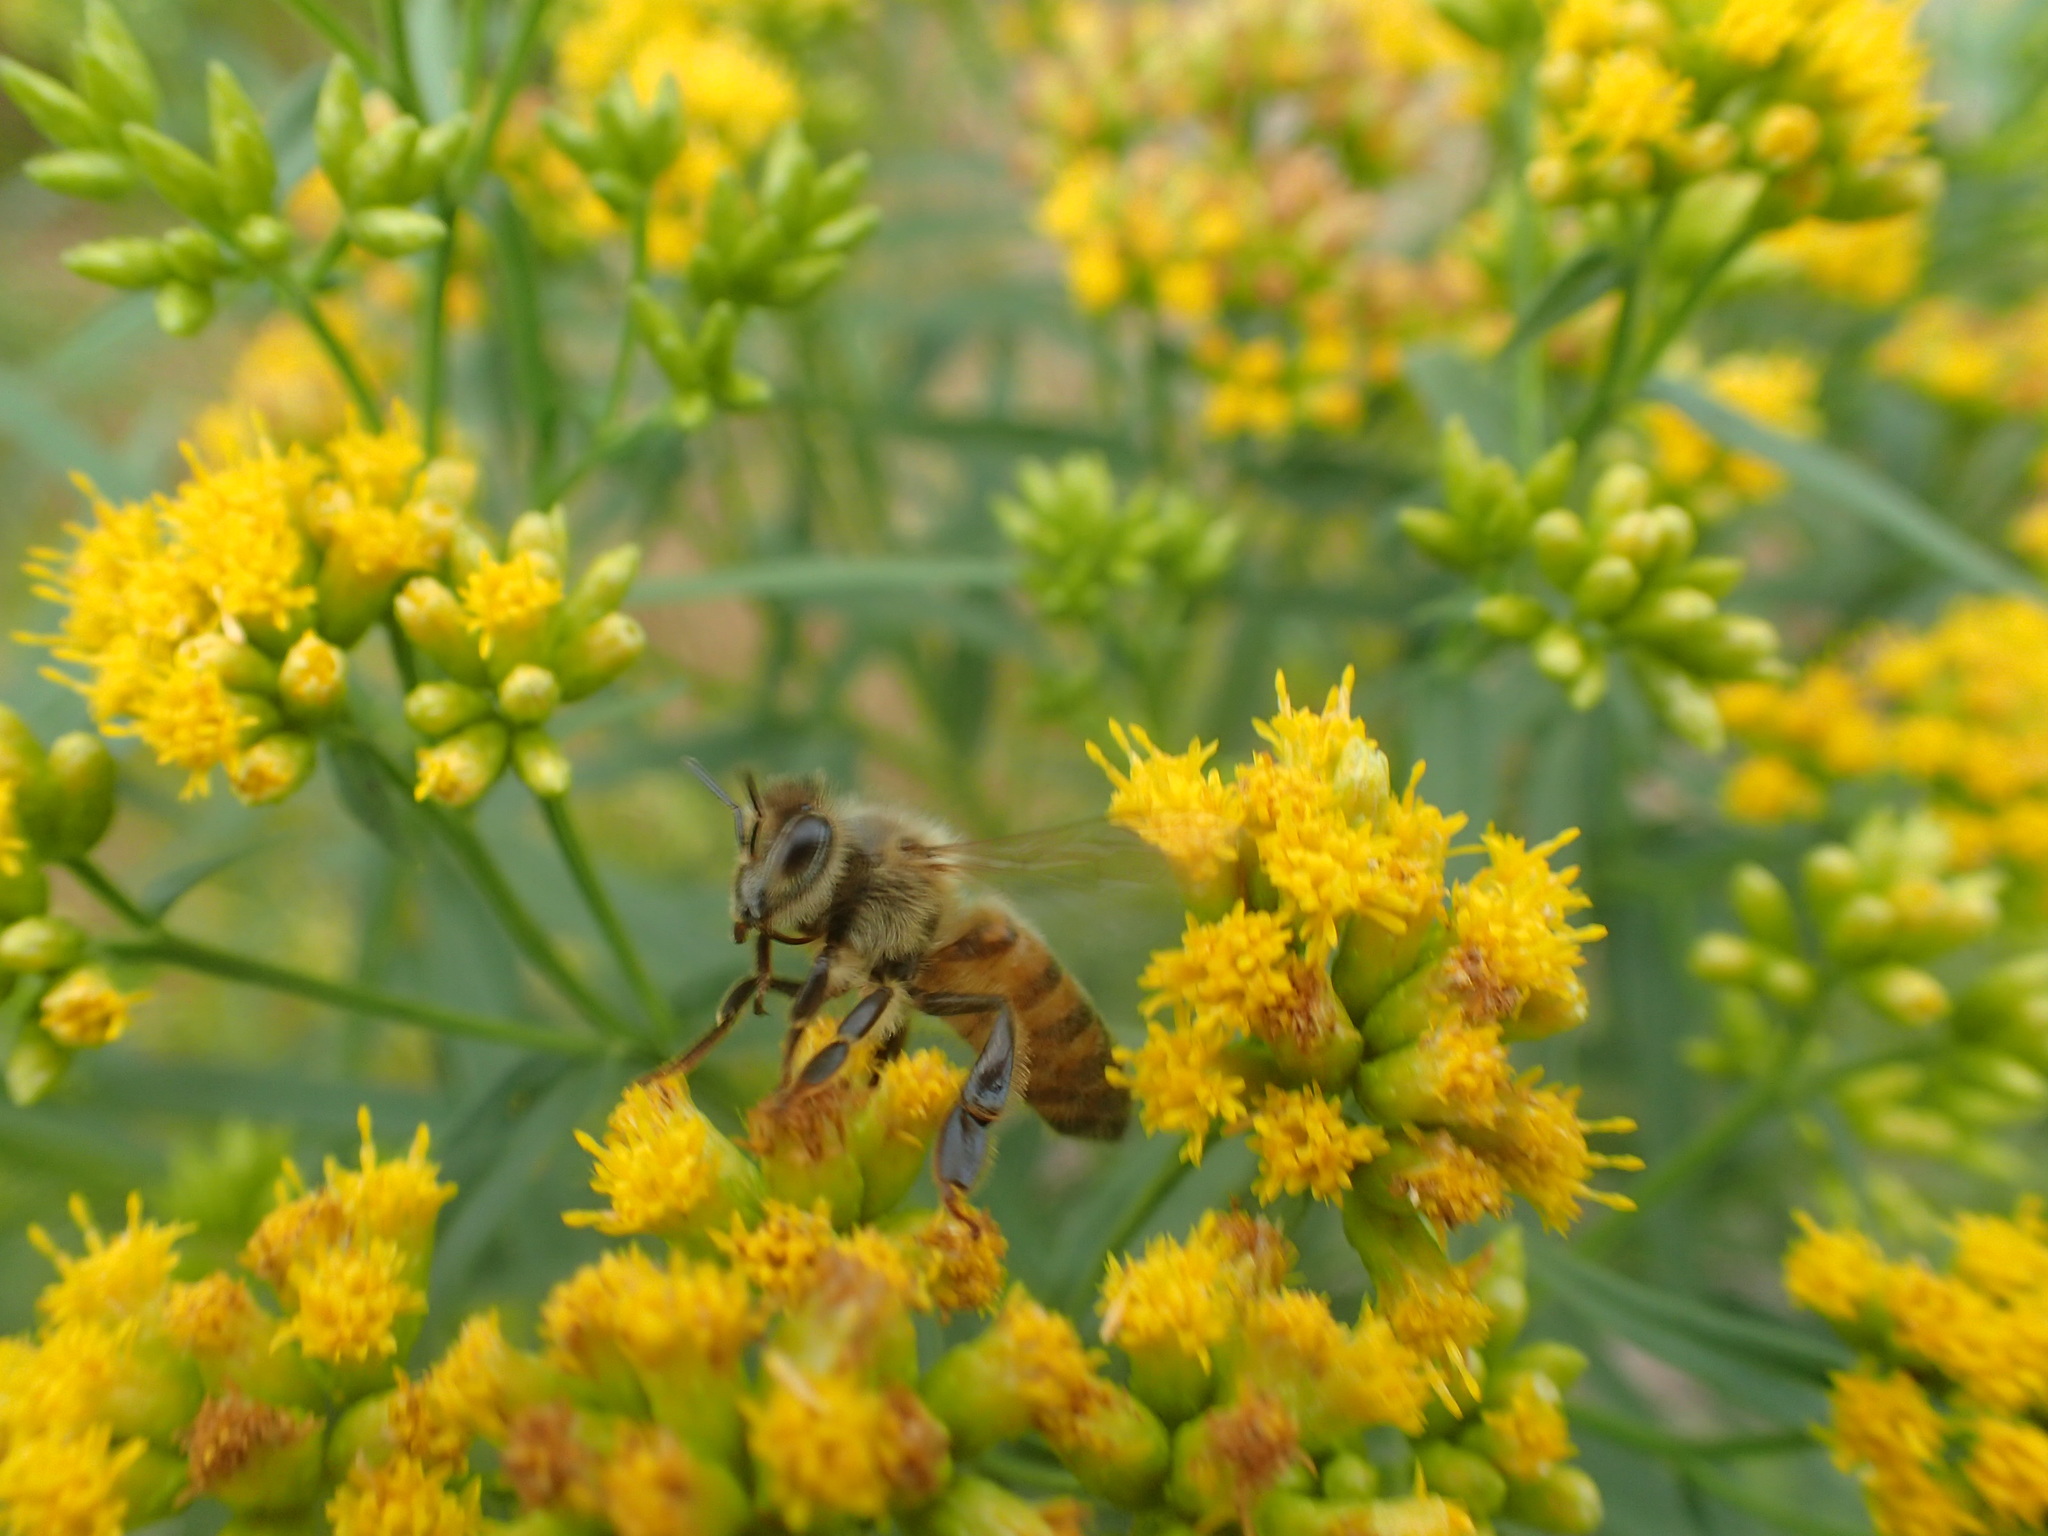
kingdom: Animalia
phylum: Arthropoda
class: Insecta
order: Hymenoptera
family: Apidae
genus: Apis
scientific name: Apis mellifera
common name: Honey bee
